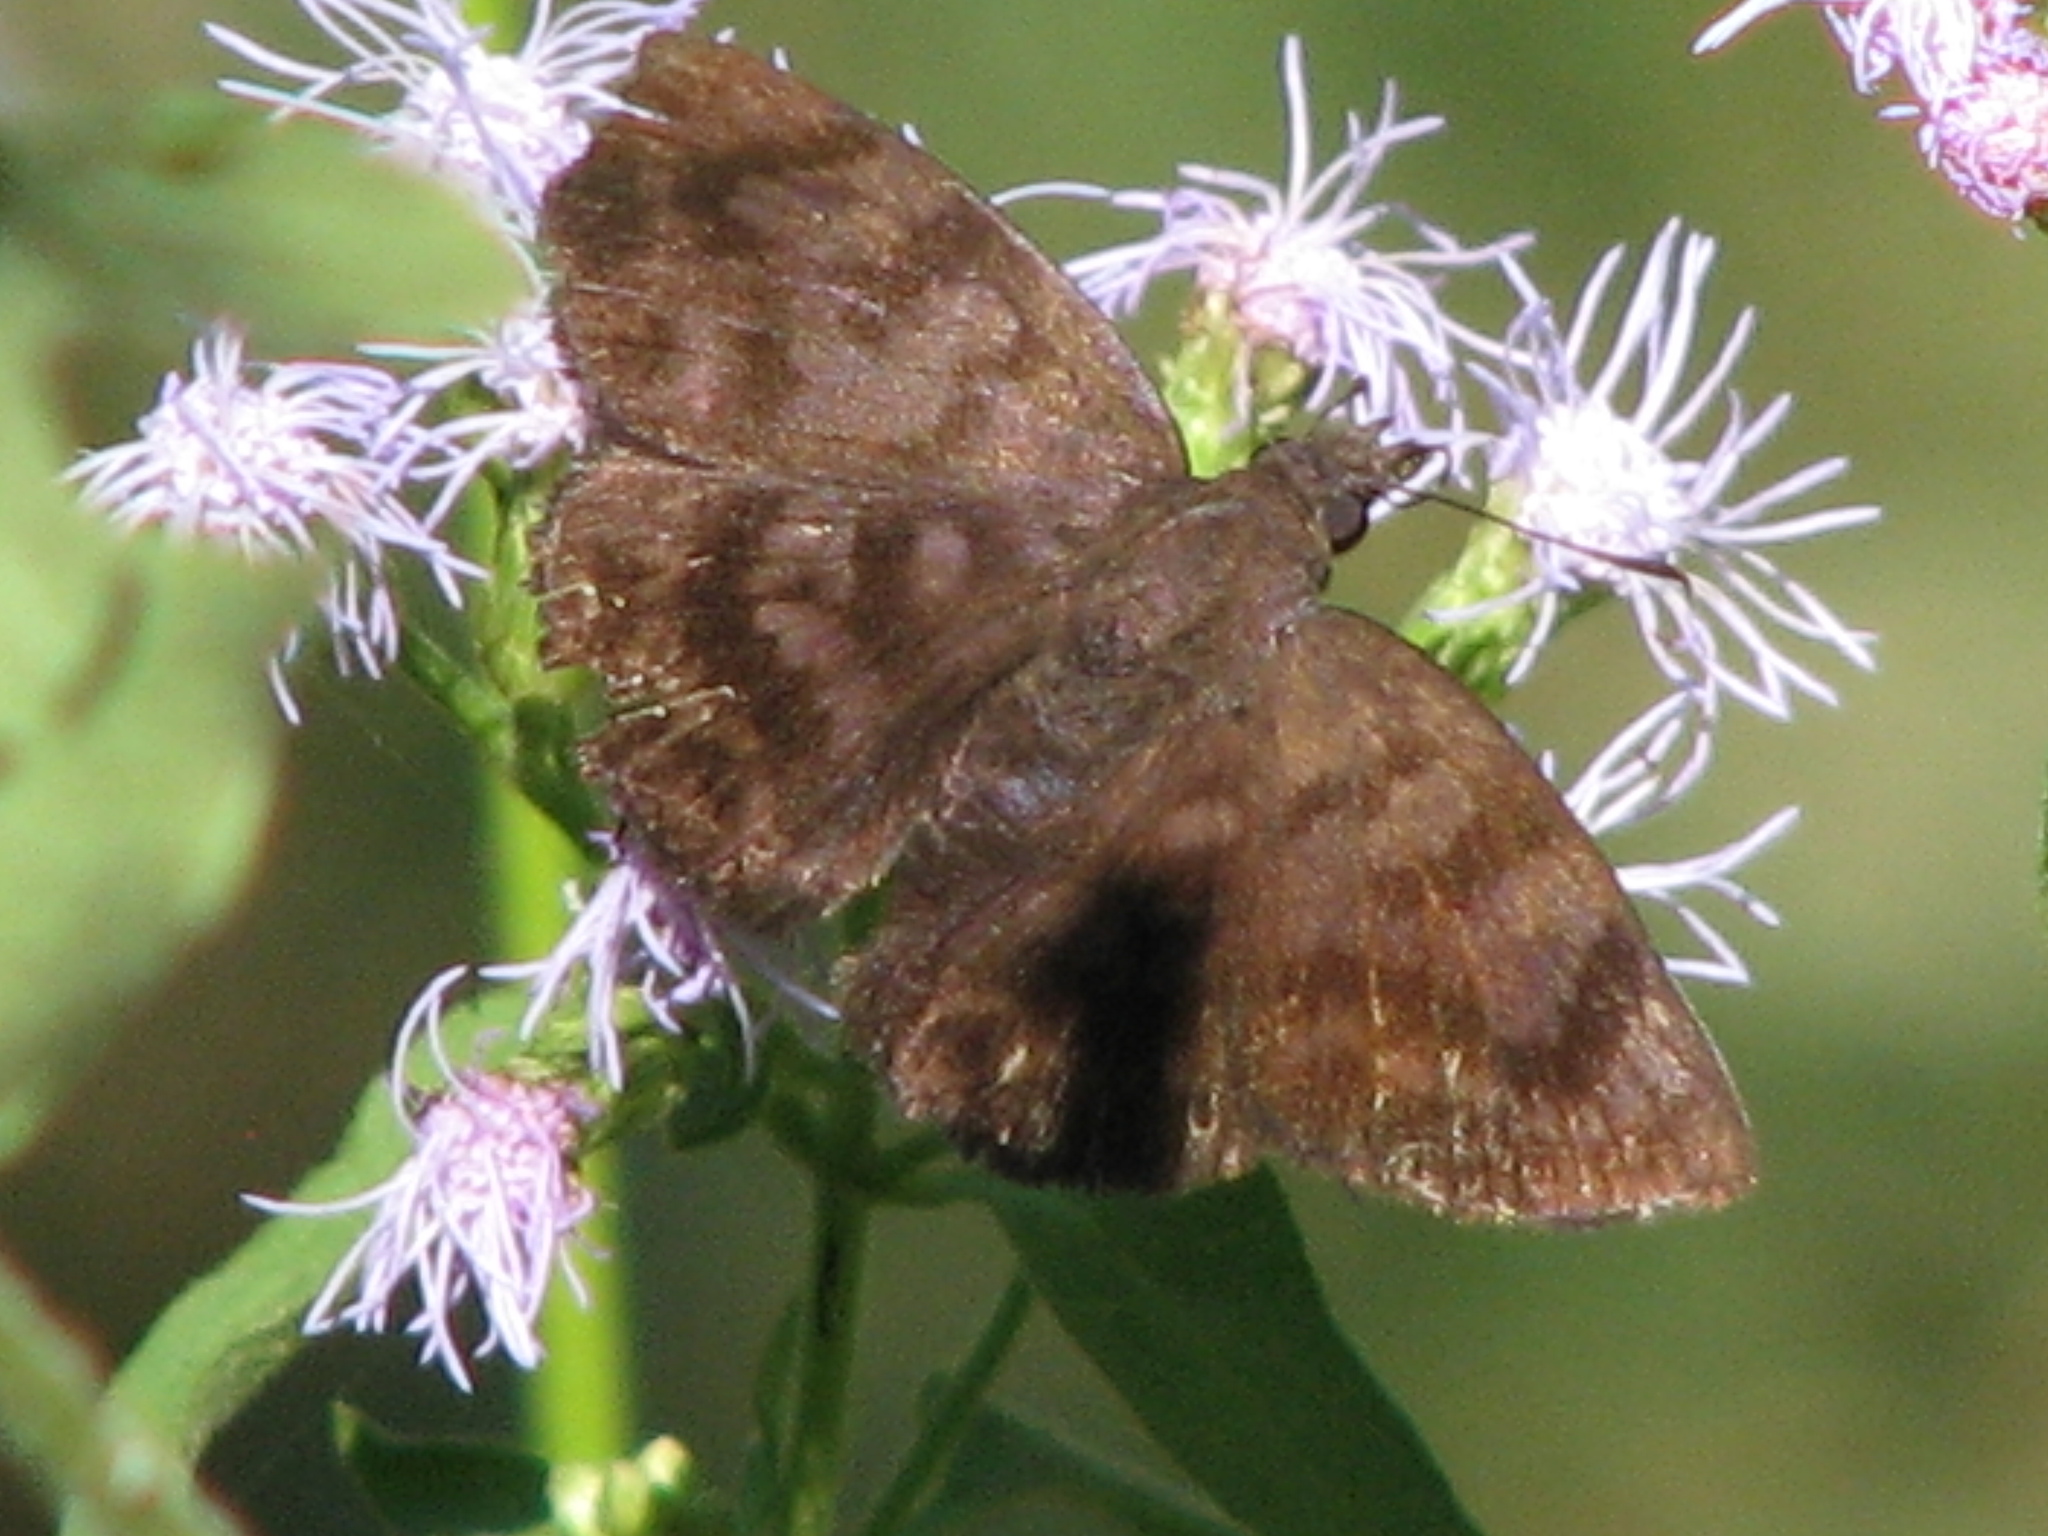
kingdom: Animalia
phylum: Arthropoda
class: Insecta
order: Lepidoptera
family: Hesperiidae
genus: Pellicia
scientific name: Pellicia costimacula
